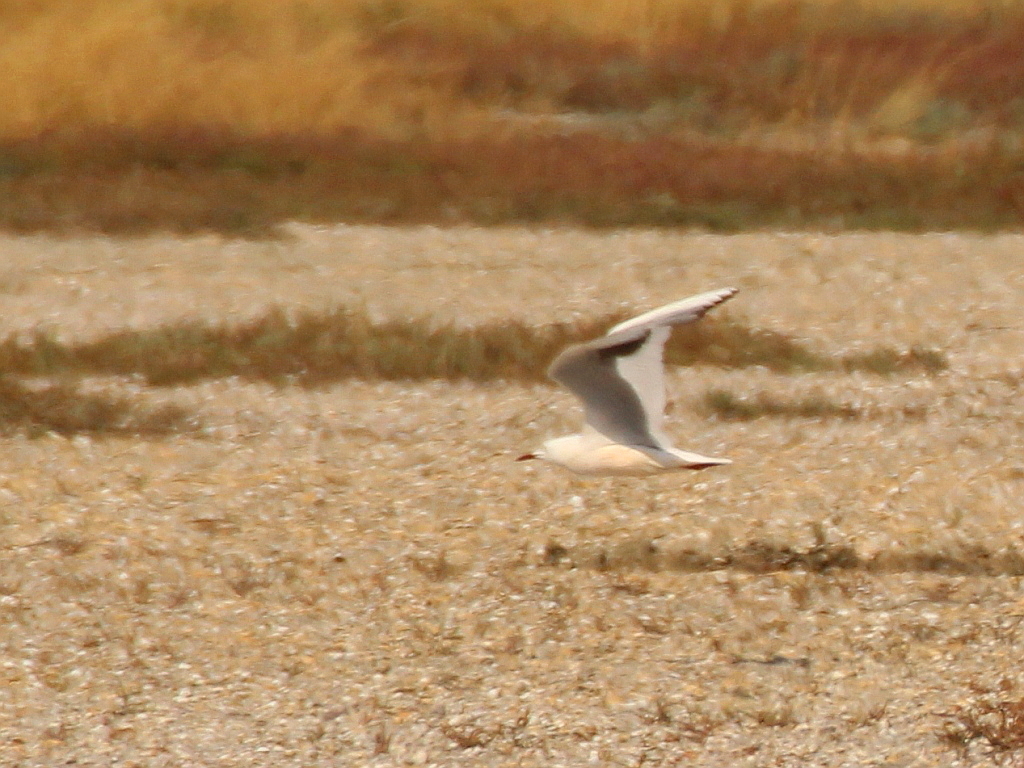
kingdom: Animalia
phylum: Chordata
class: Aves
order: Charadriiformes
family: Laridae
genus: Chroicocephalus
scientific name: Chroicocephalus genei
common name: Slender-billed gull
